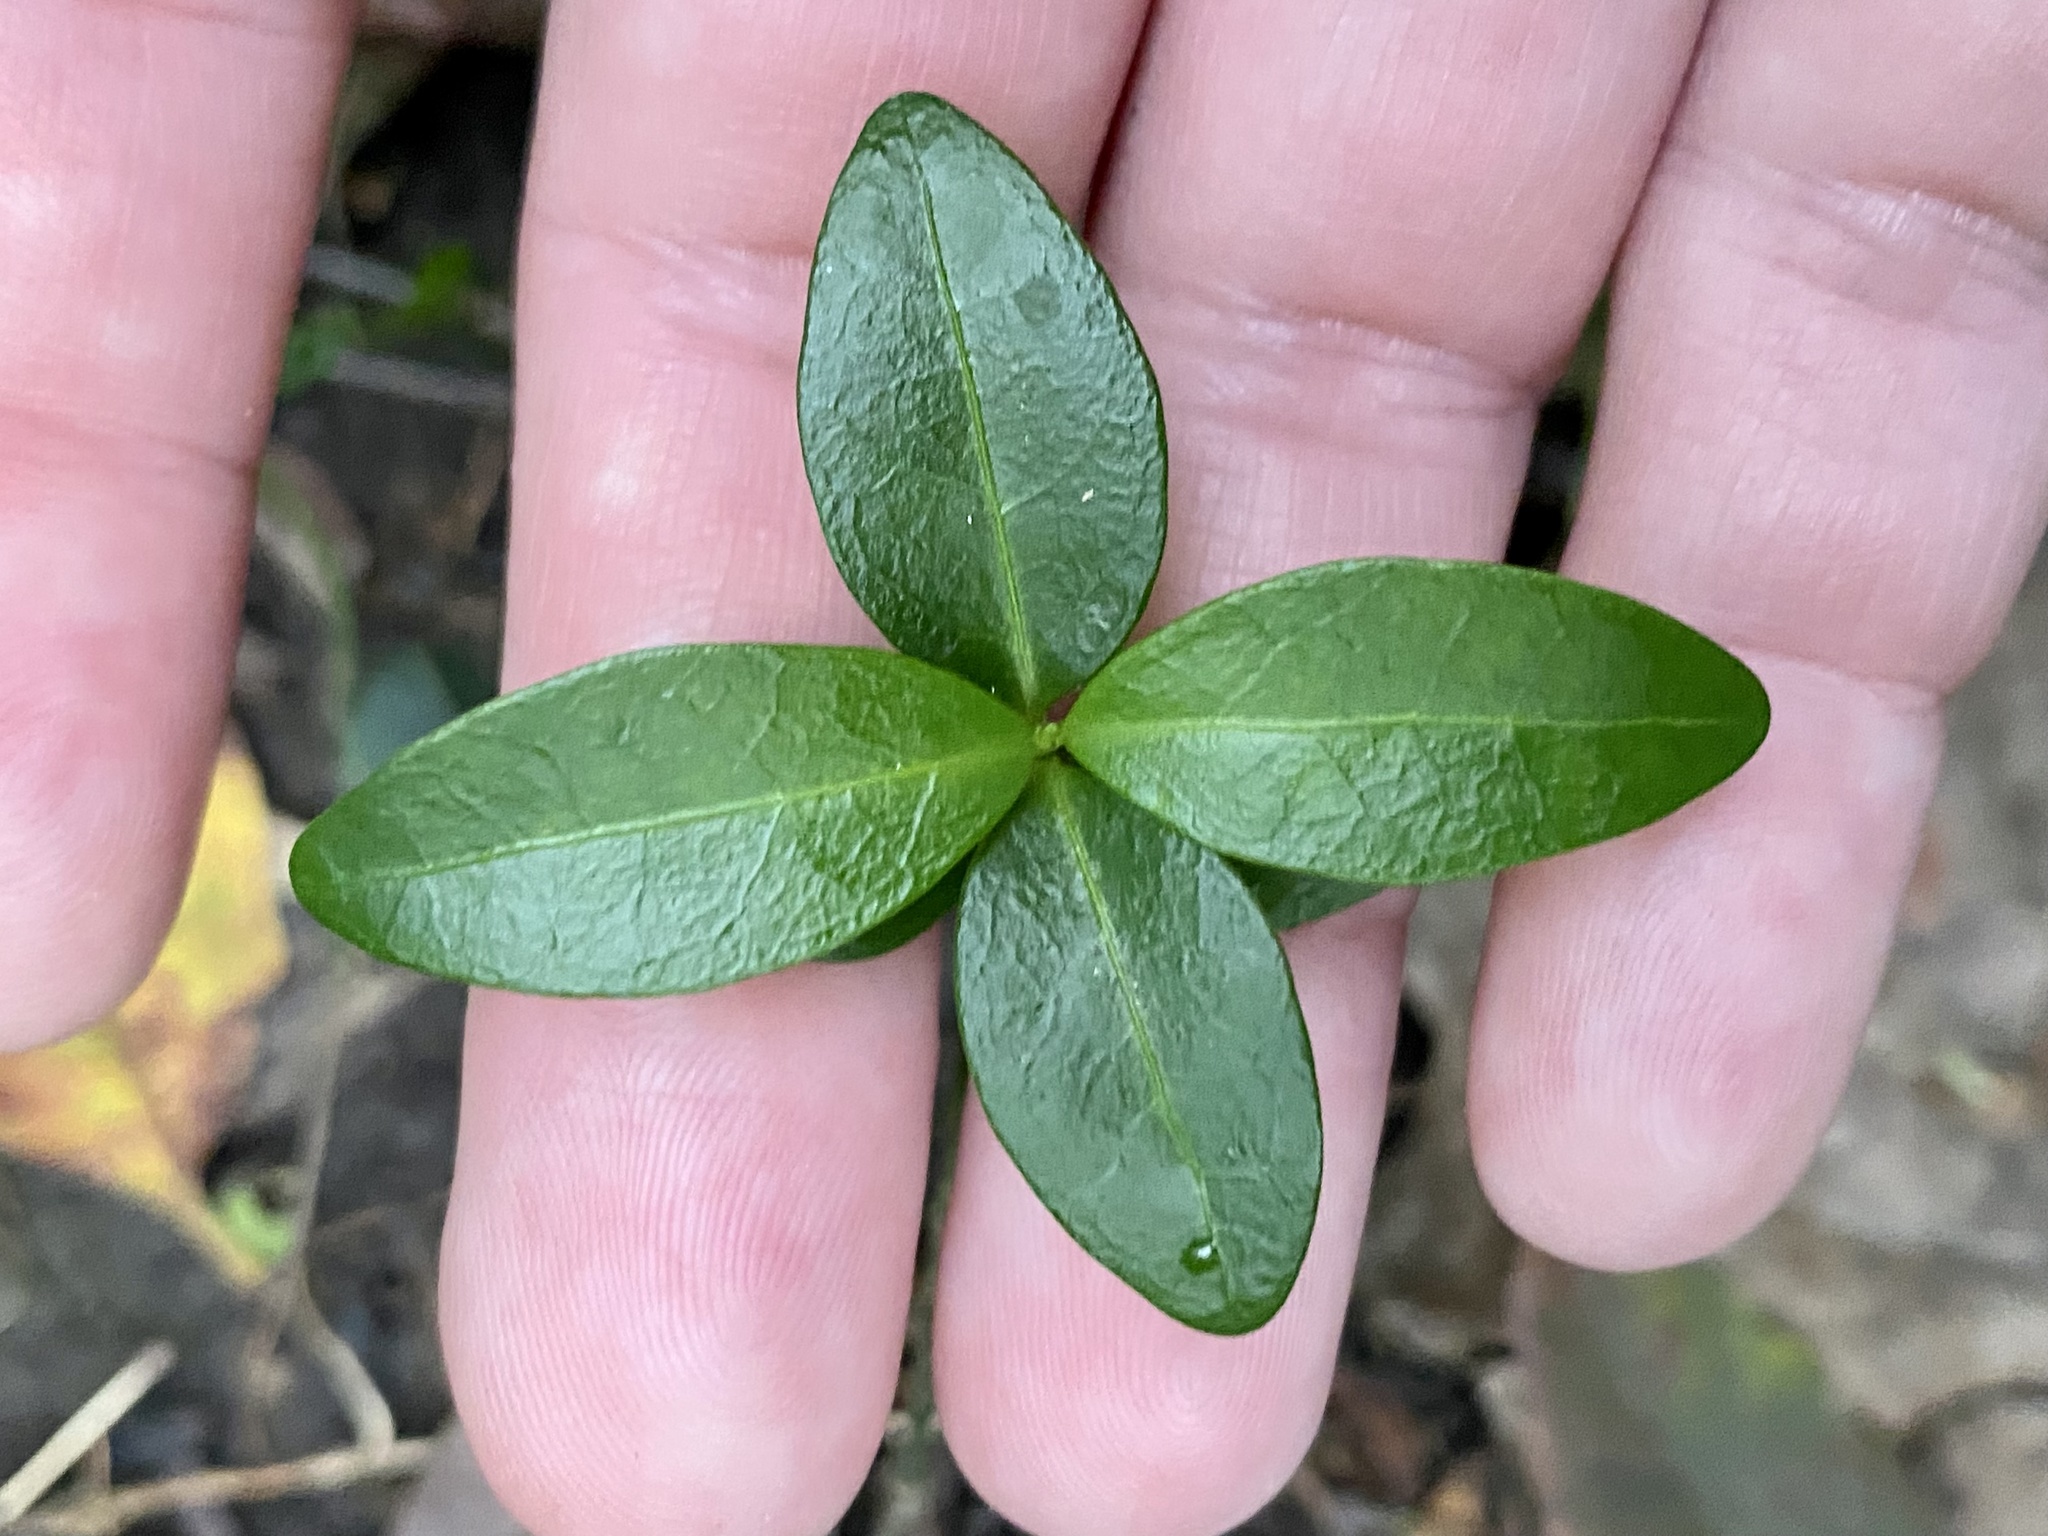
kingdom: Plantae
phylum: Tracheophyta
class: Magnoliopsida
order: Gentianales
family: Apocynaceae
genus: Vinca
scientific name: Vinca minor
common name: Lesser periwinkle
